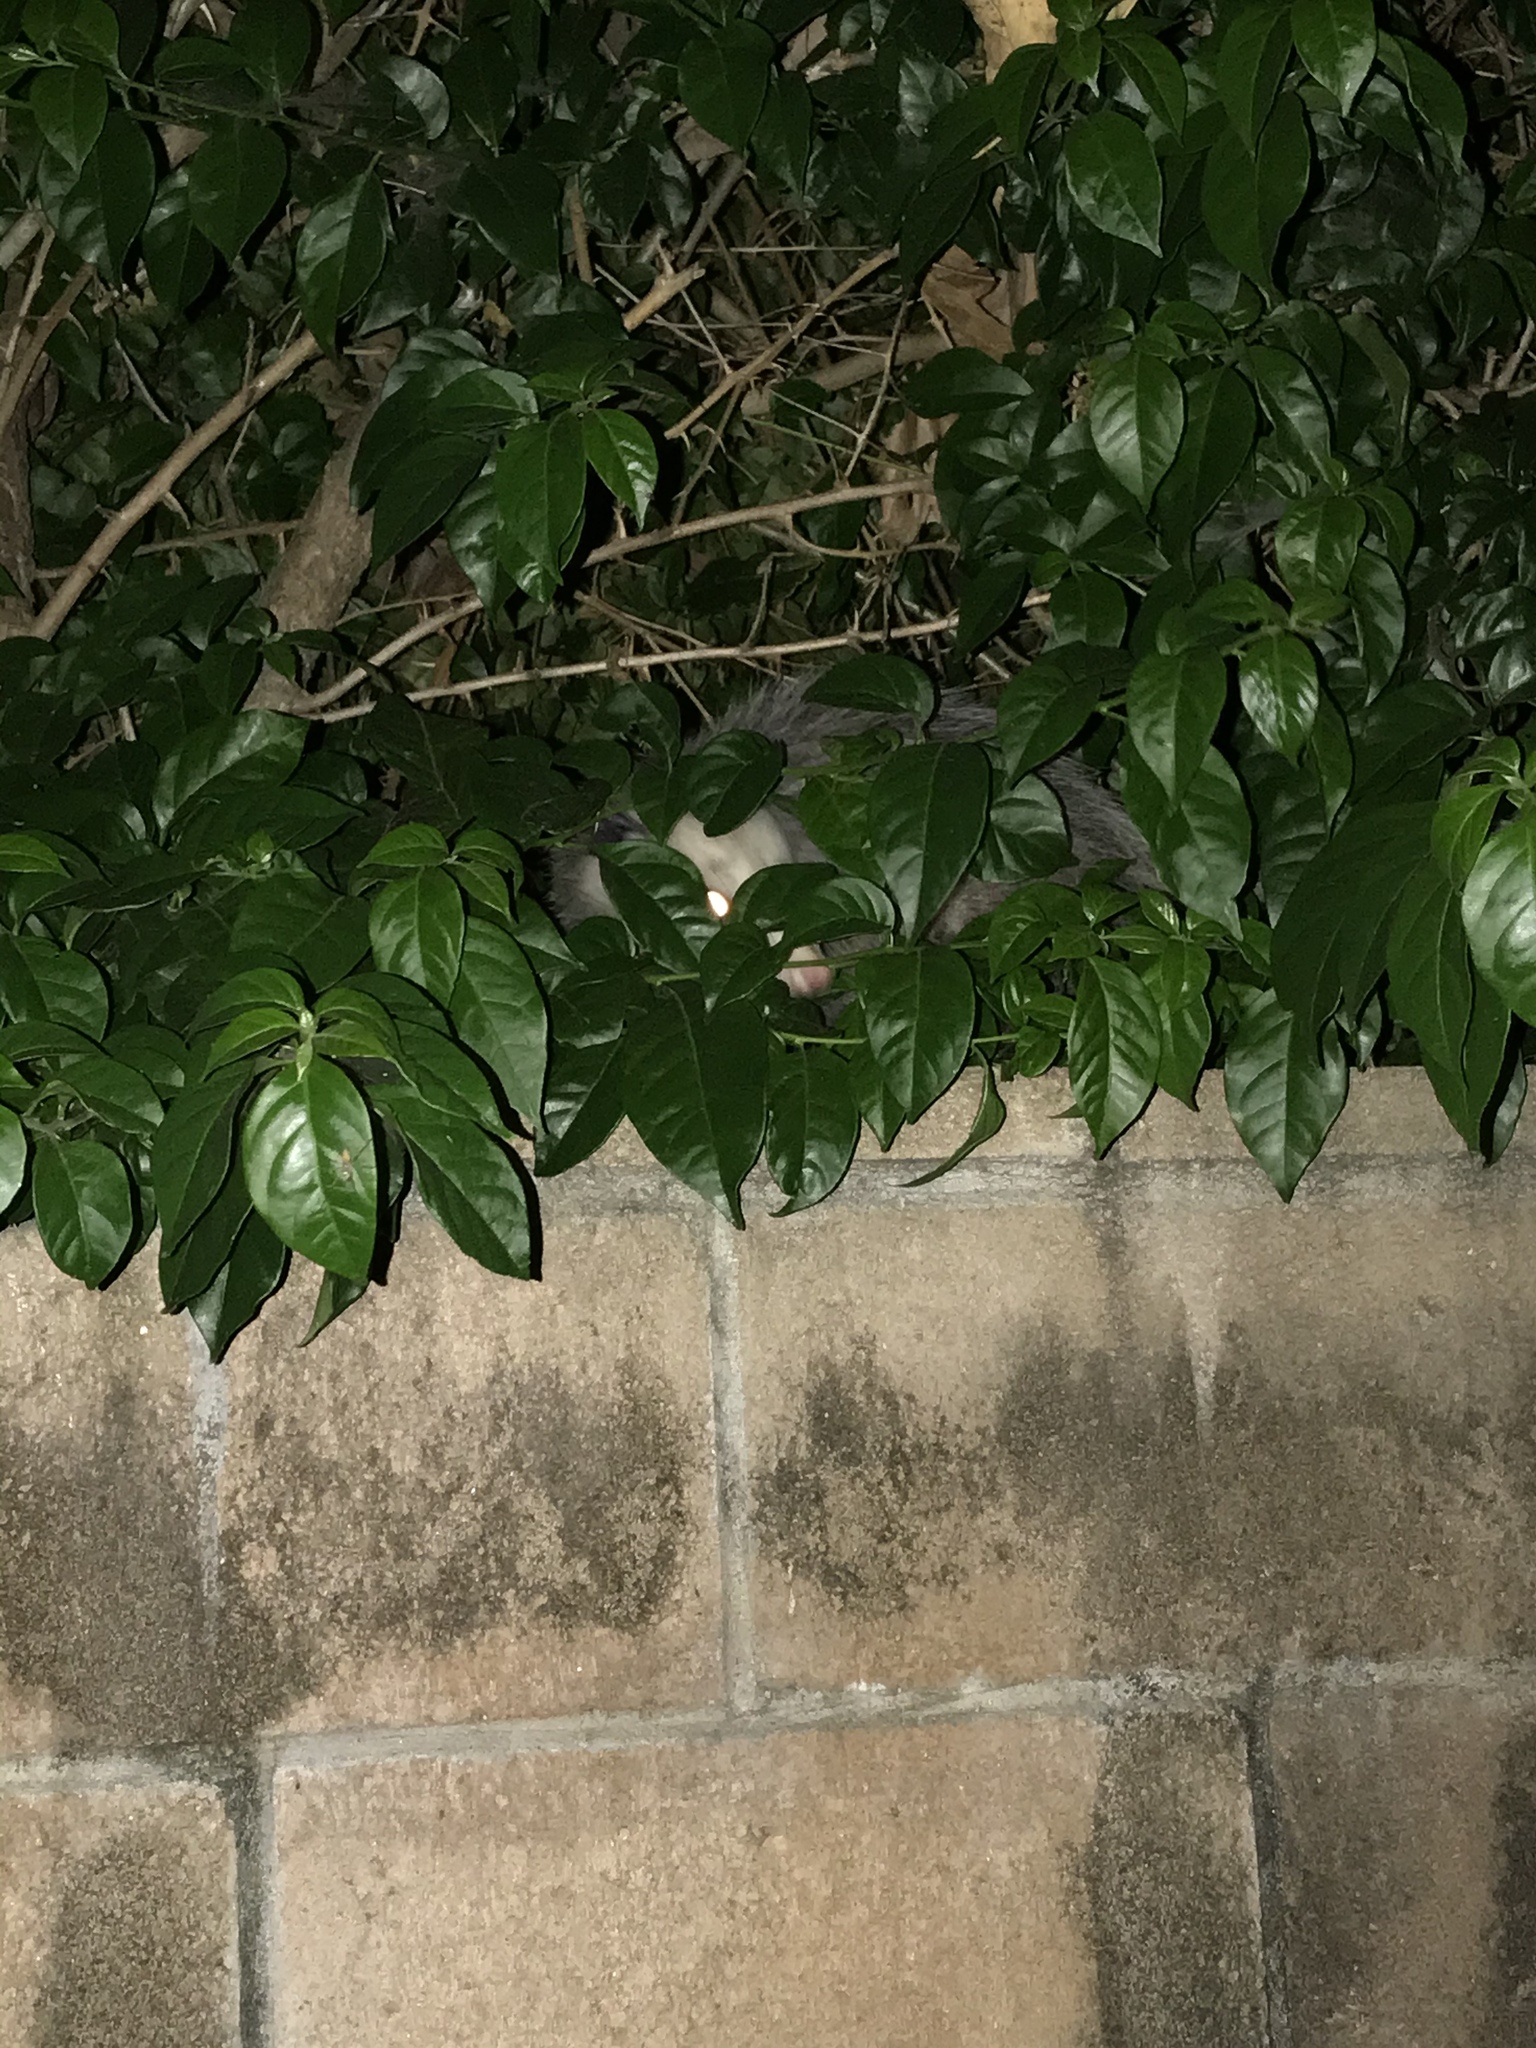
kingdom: Animalia
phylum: Chordata
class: Mammalia
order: Didelphimorphia
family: Didelphidae
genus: Didelphis
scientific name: Didelphis virginiana
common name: Virginia opossum
